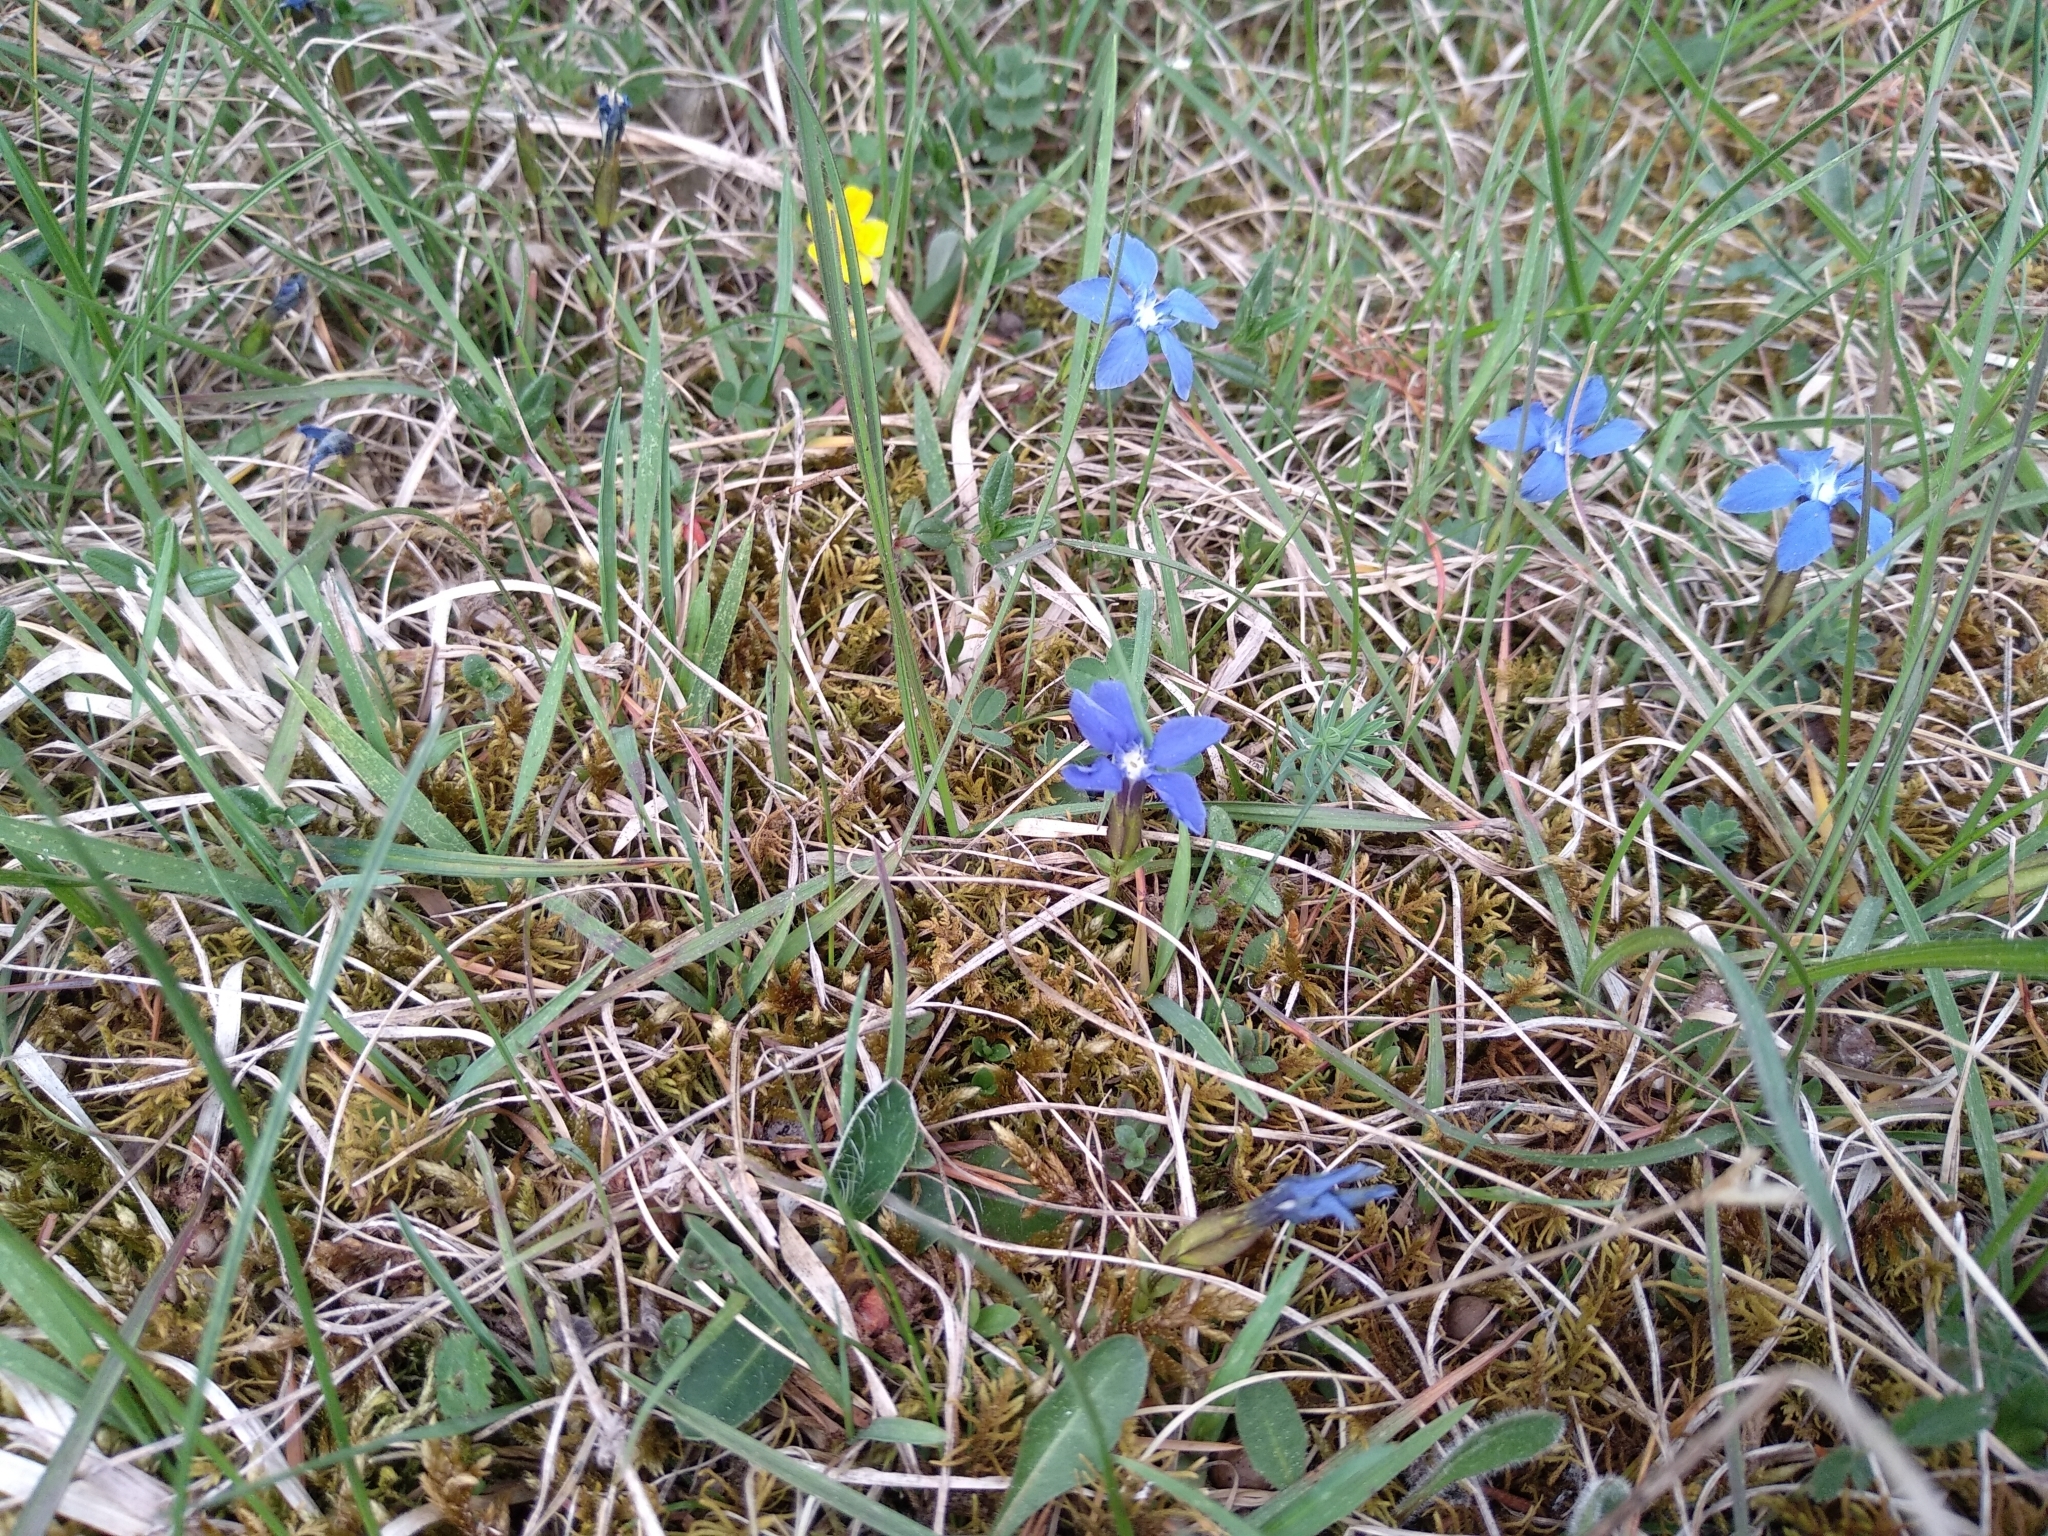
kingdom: Plantae
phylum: Tracheophyta
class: Magnoliopsida
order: Gentianales
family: Gentianaceae
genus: Gentiana
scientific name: Gentiana verna
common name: Spring gentian
